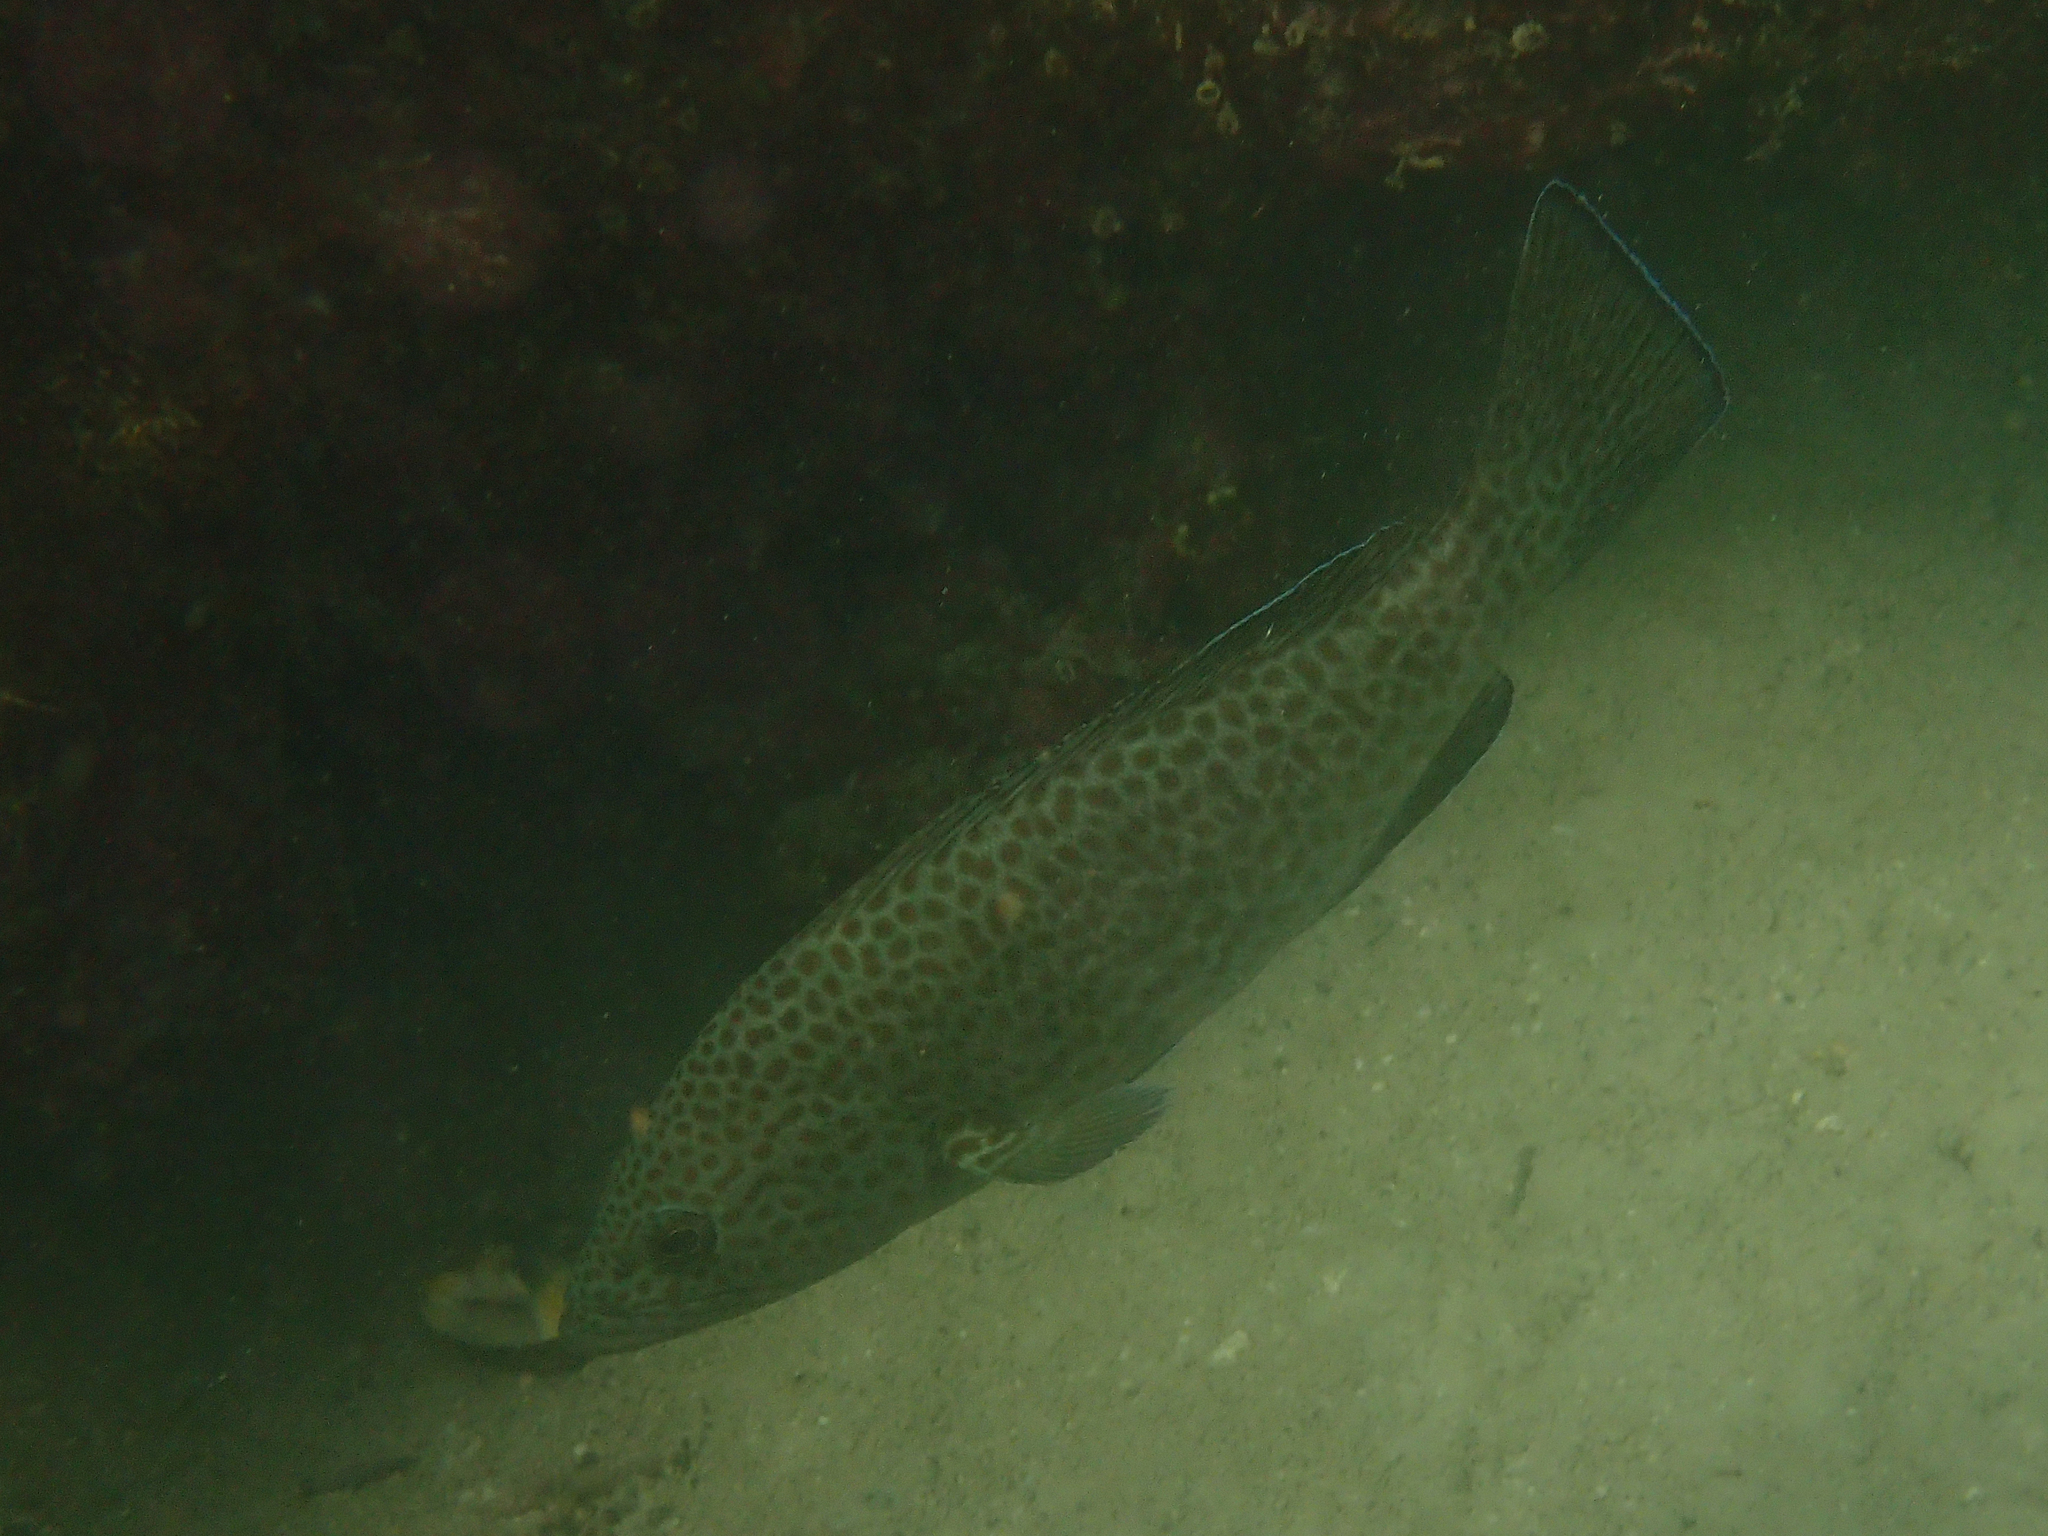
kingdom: Animalia
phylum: Chordata
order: Perciformes
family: Serranidae
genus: Epinephelus
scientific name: Epinephelus analogus
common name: Spotted cabrilla
